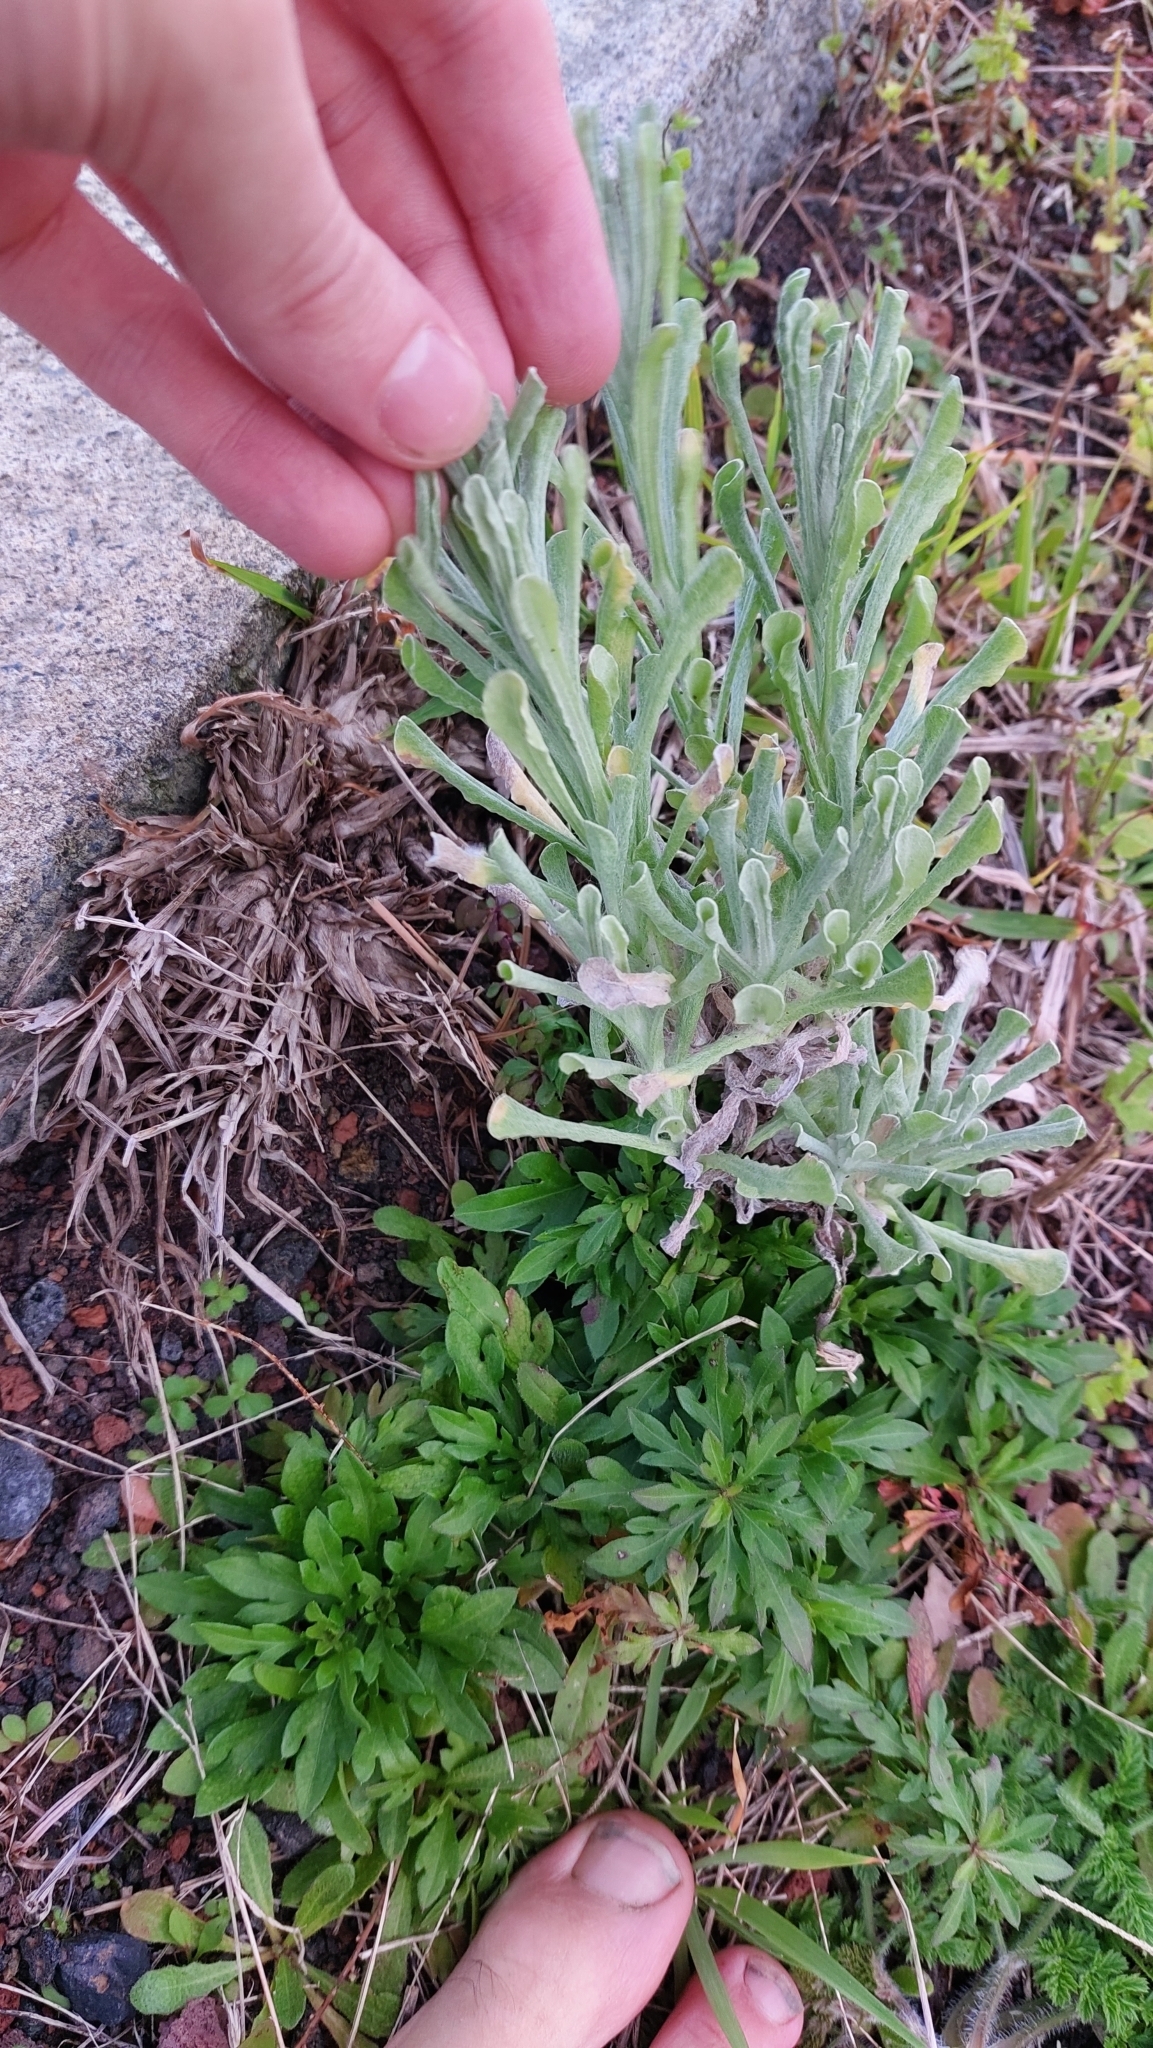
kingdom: Plantae
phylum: Tracheophyta
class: Magnoliopsida
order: Asterales
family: Asteraceae
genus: Helichrysum
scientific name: Helichrysum luteoalbum
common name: Daisy
